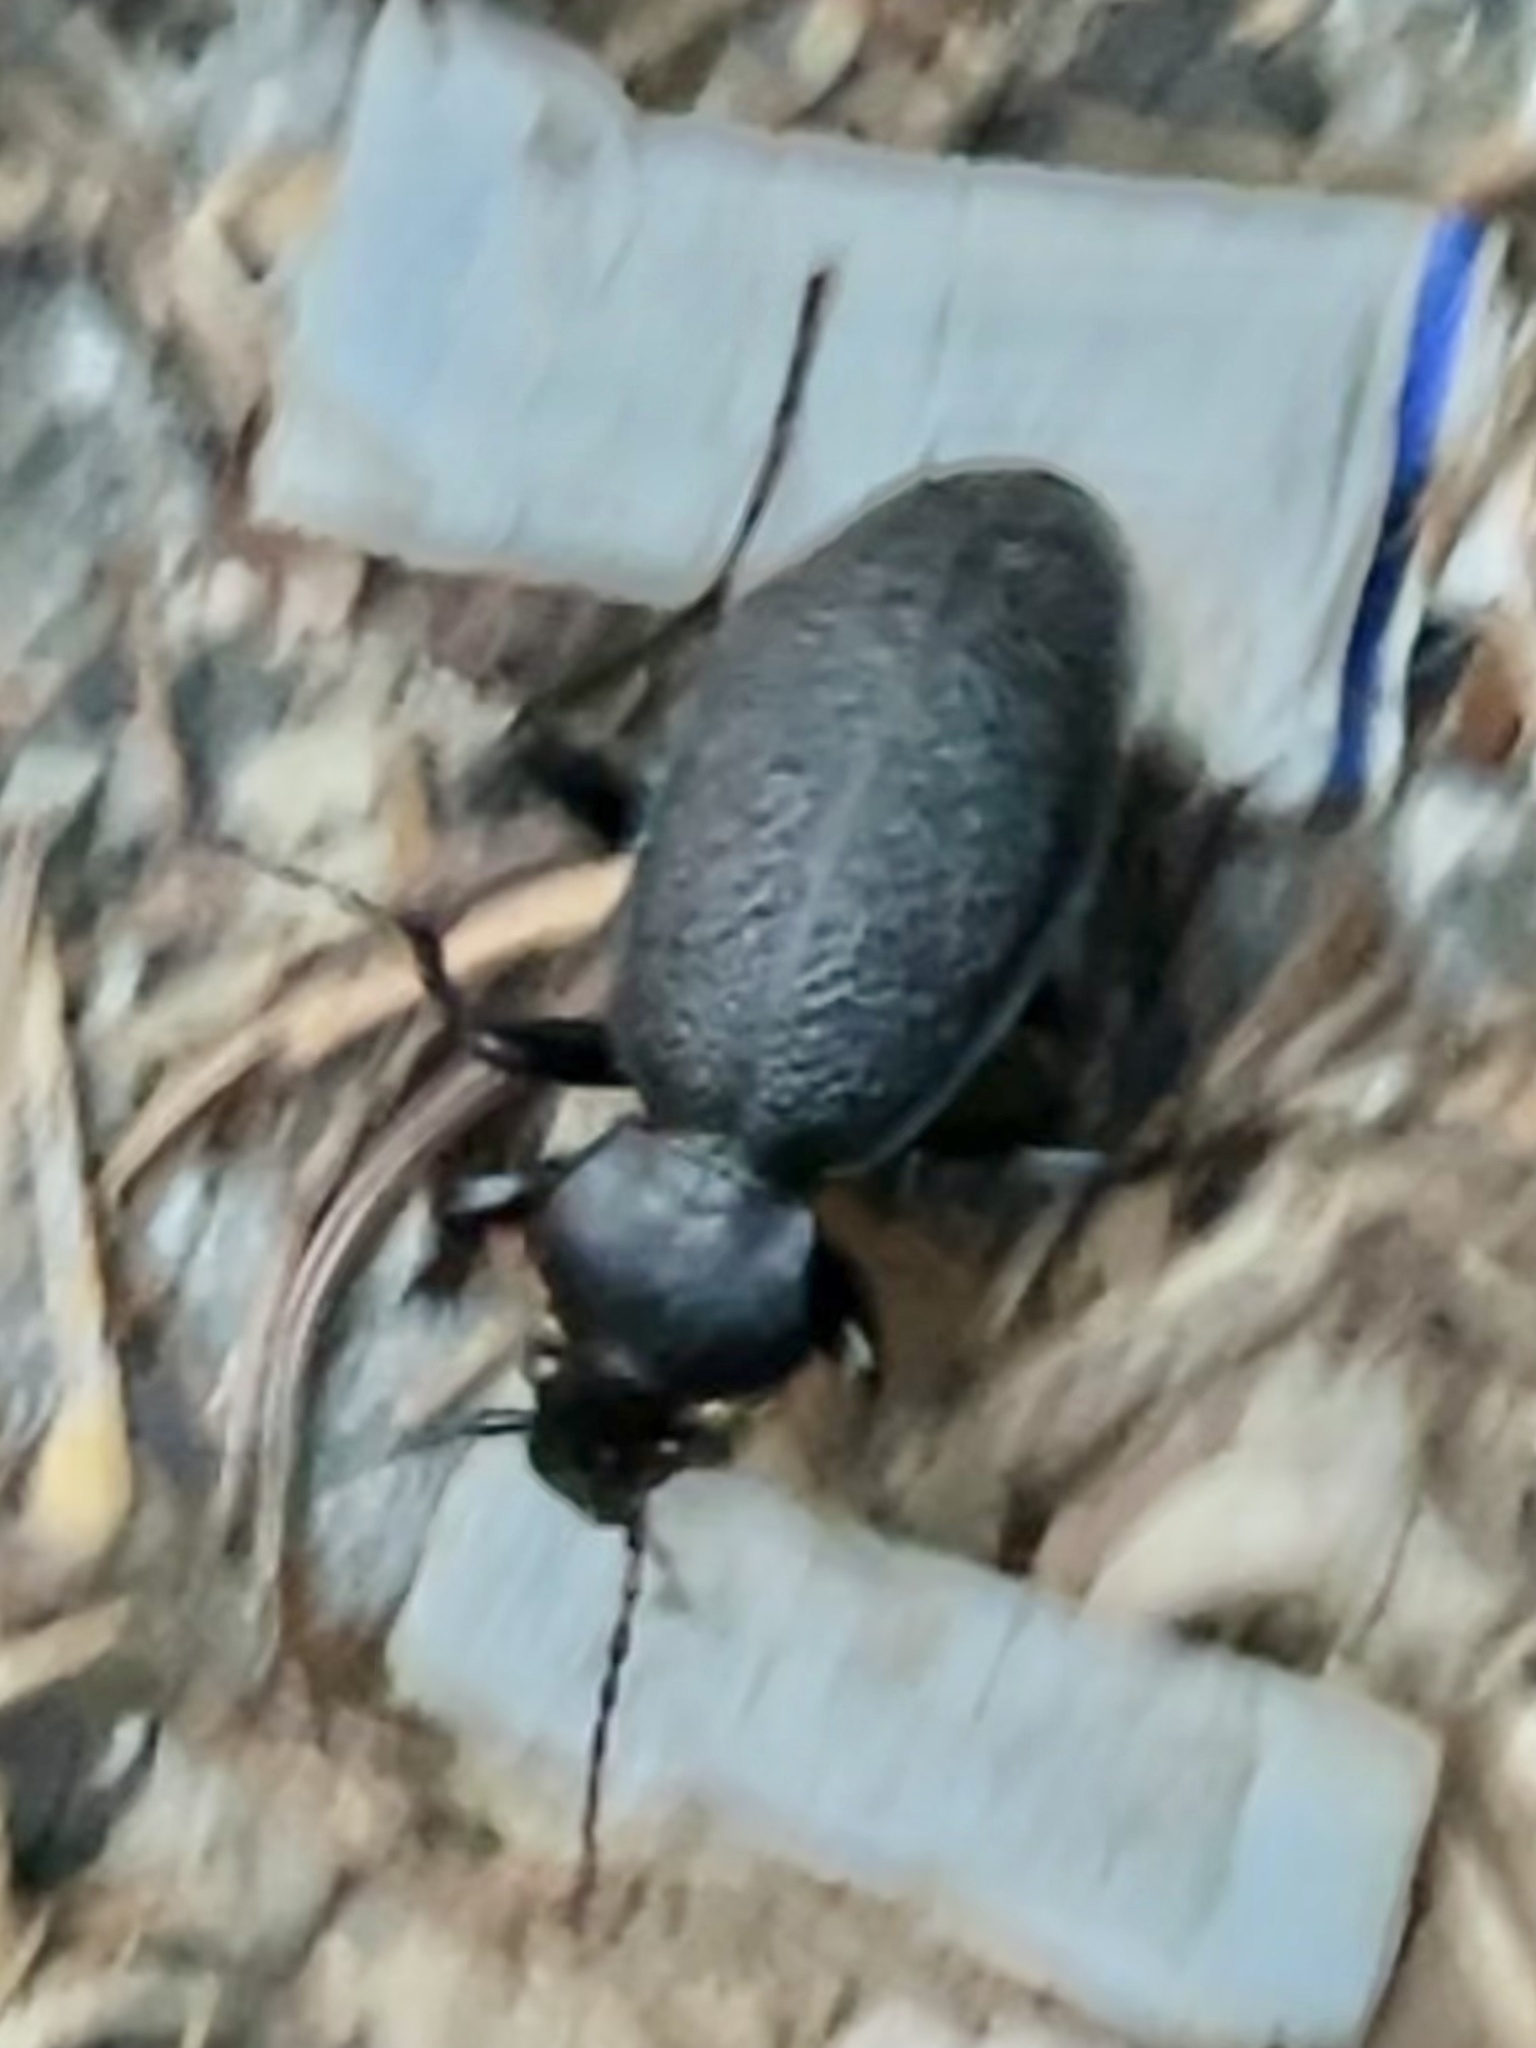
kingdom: Animalia
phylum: Arthropoda
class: Insecta
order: Coleoptera
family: Carabidae
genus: Carabus
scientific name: Carabus coriaceus
